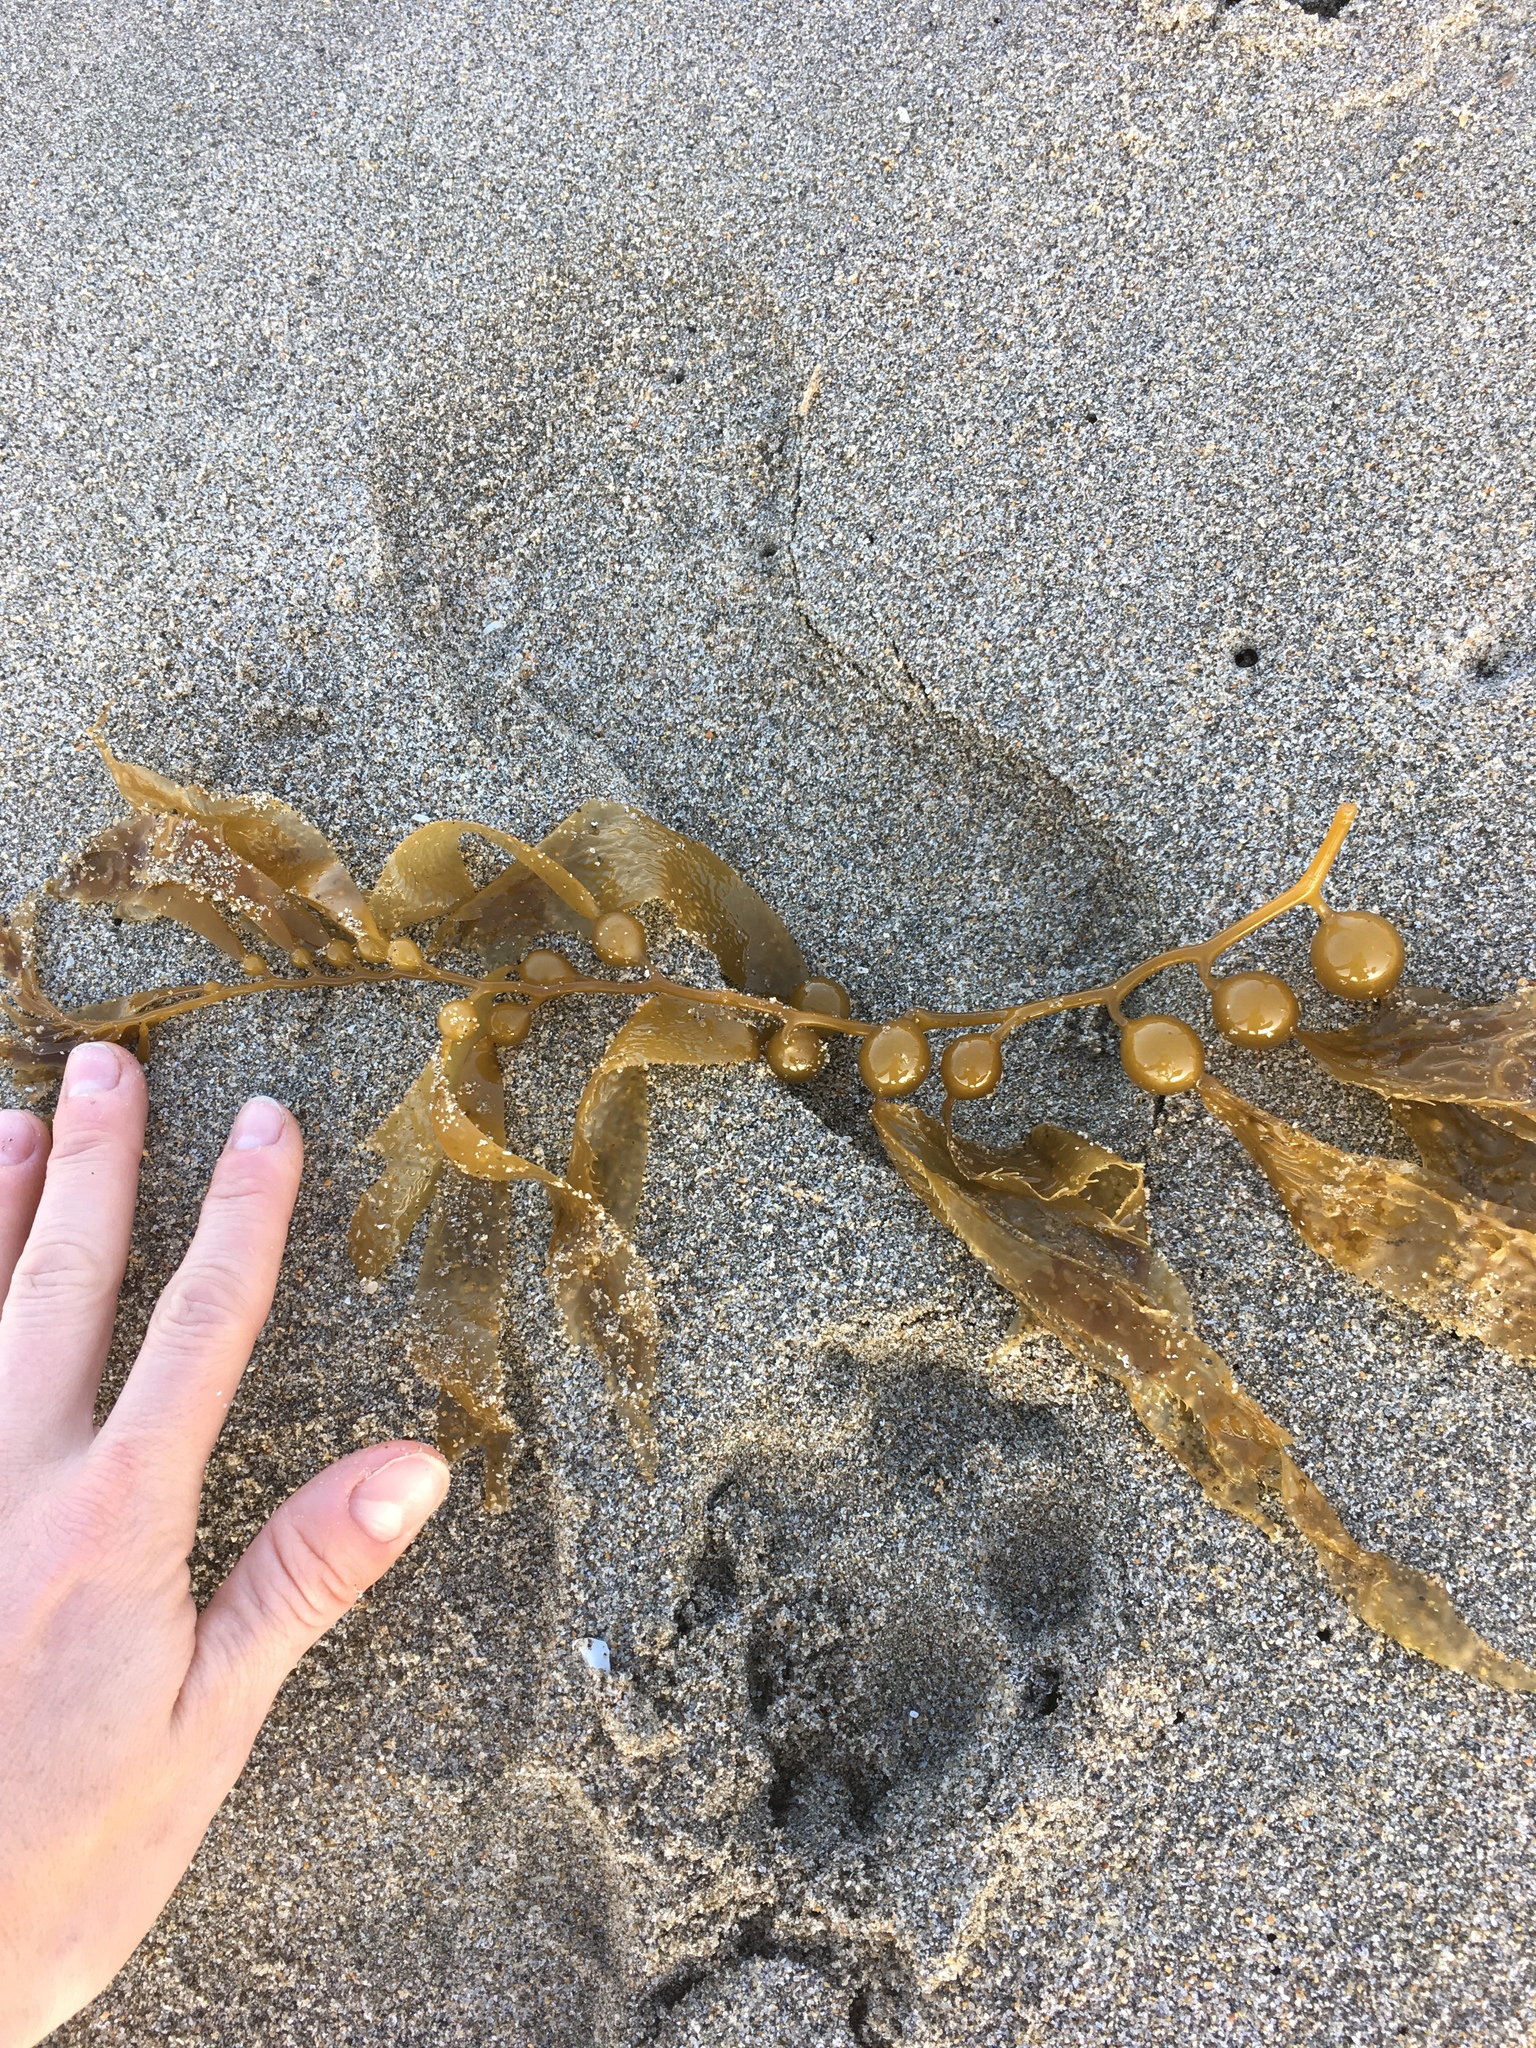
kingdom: Chromista
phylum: Ochrophyta
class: Phaeophyceae
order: Laminariales
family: Laminariaceae
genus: Macrocystis
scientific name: Macrocystis pyrifera
